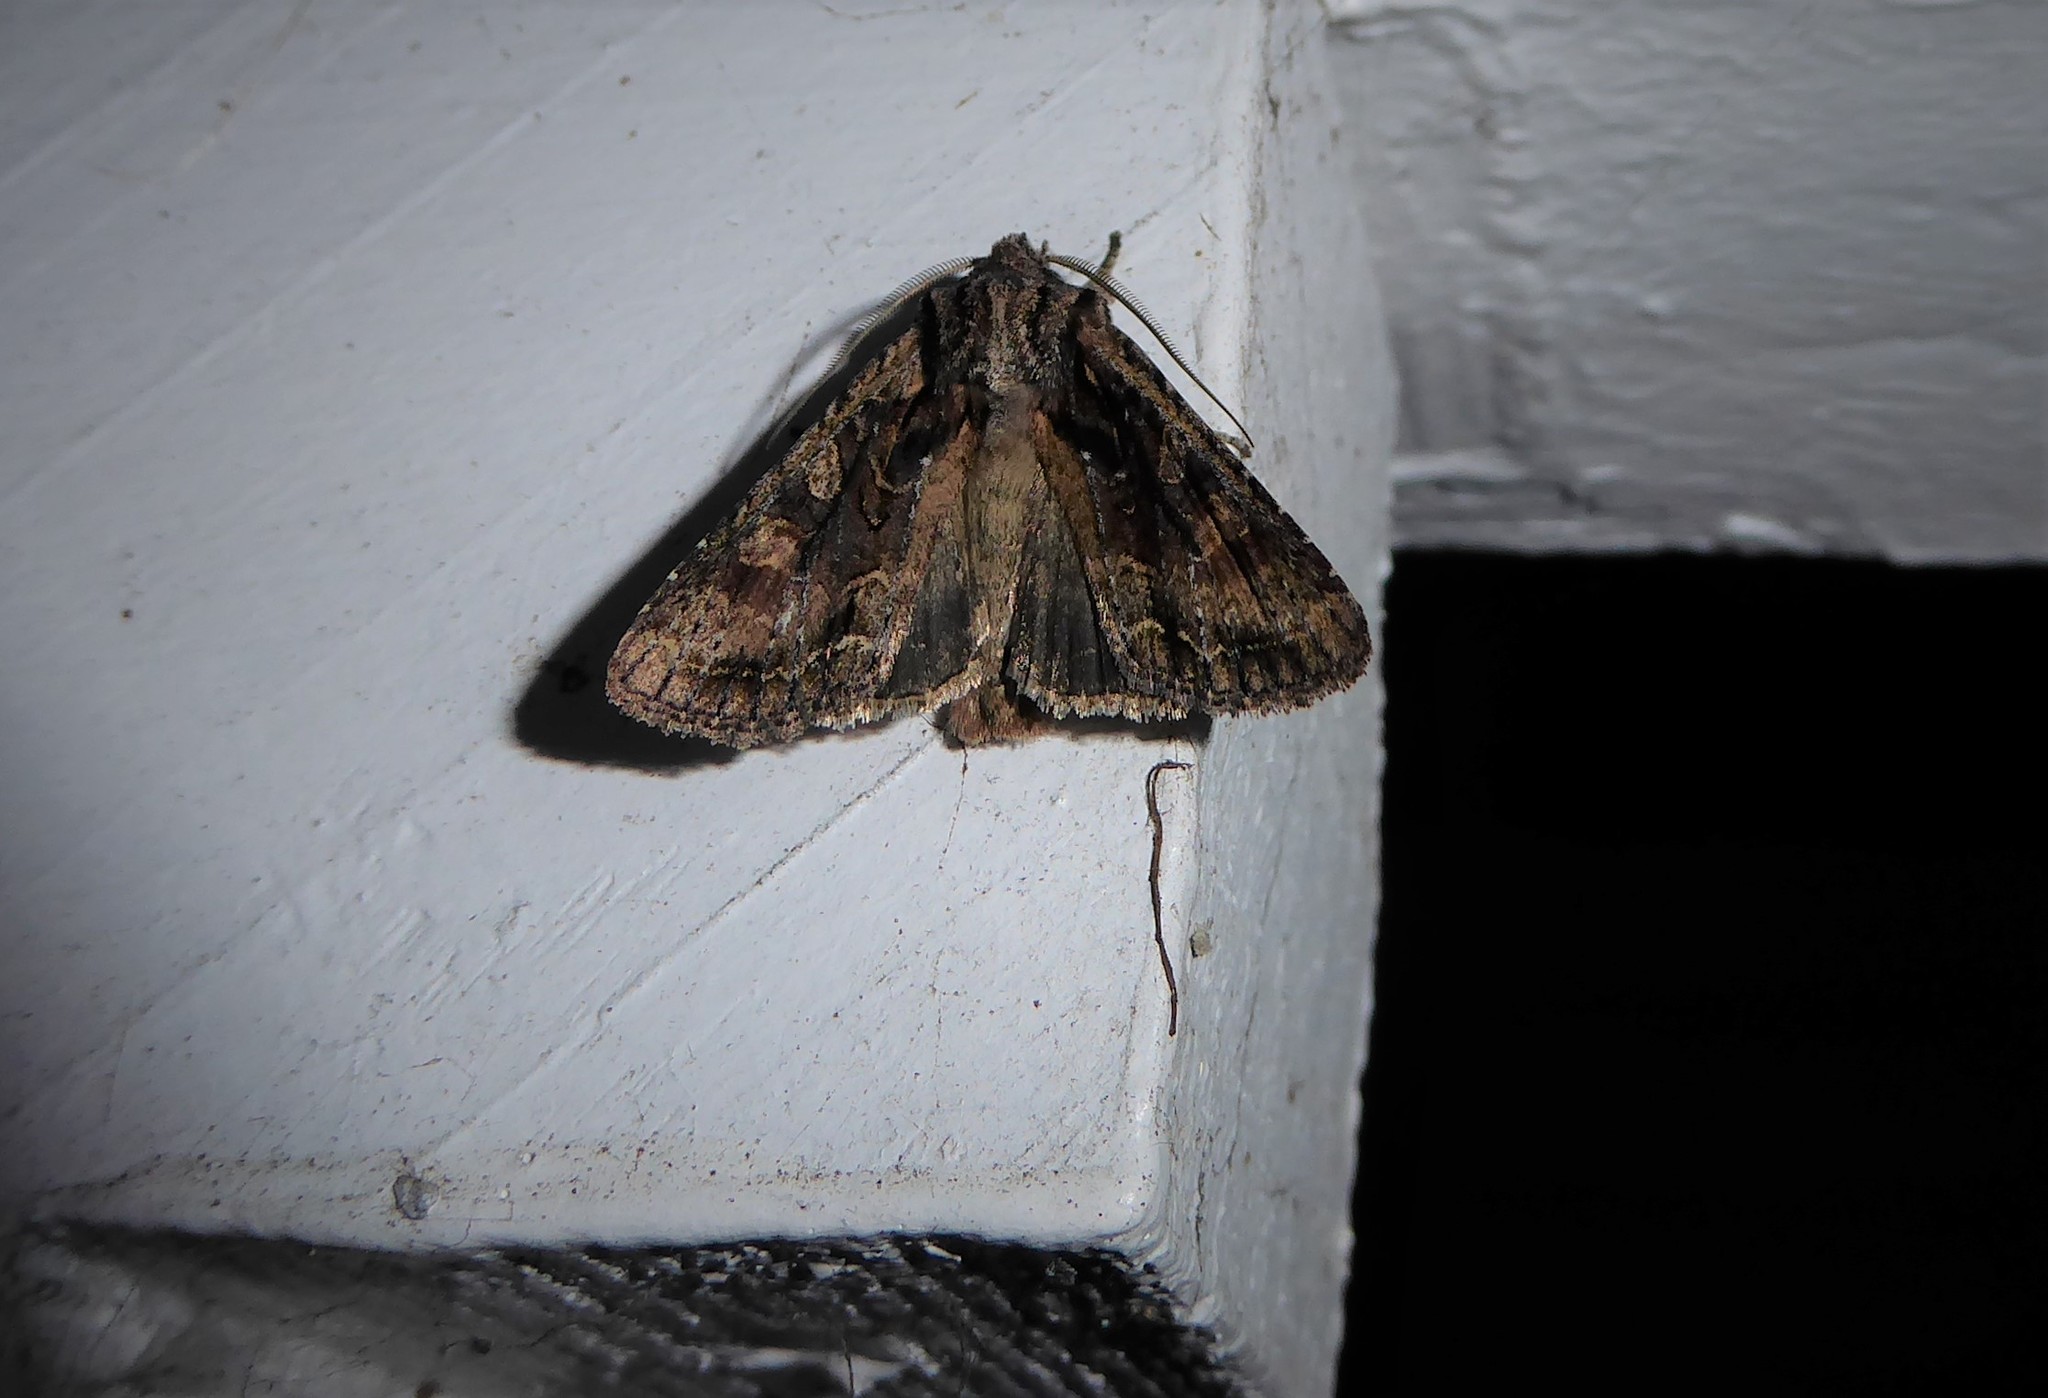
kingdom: Animalia
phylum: Arthropoda
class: Insecta
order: Lepidoptera
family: Noctuidae
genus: Ichneutica
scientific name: Ichneutica mutans
